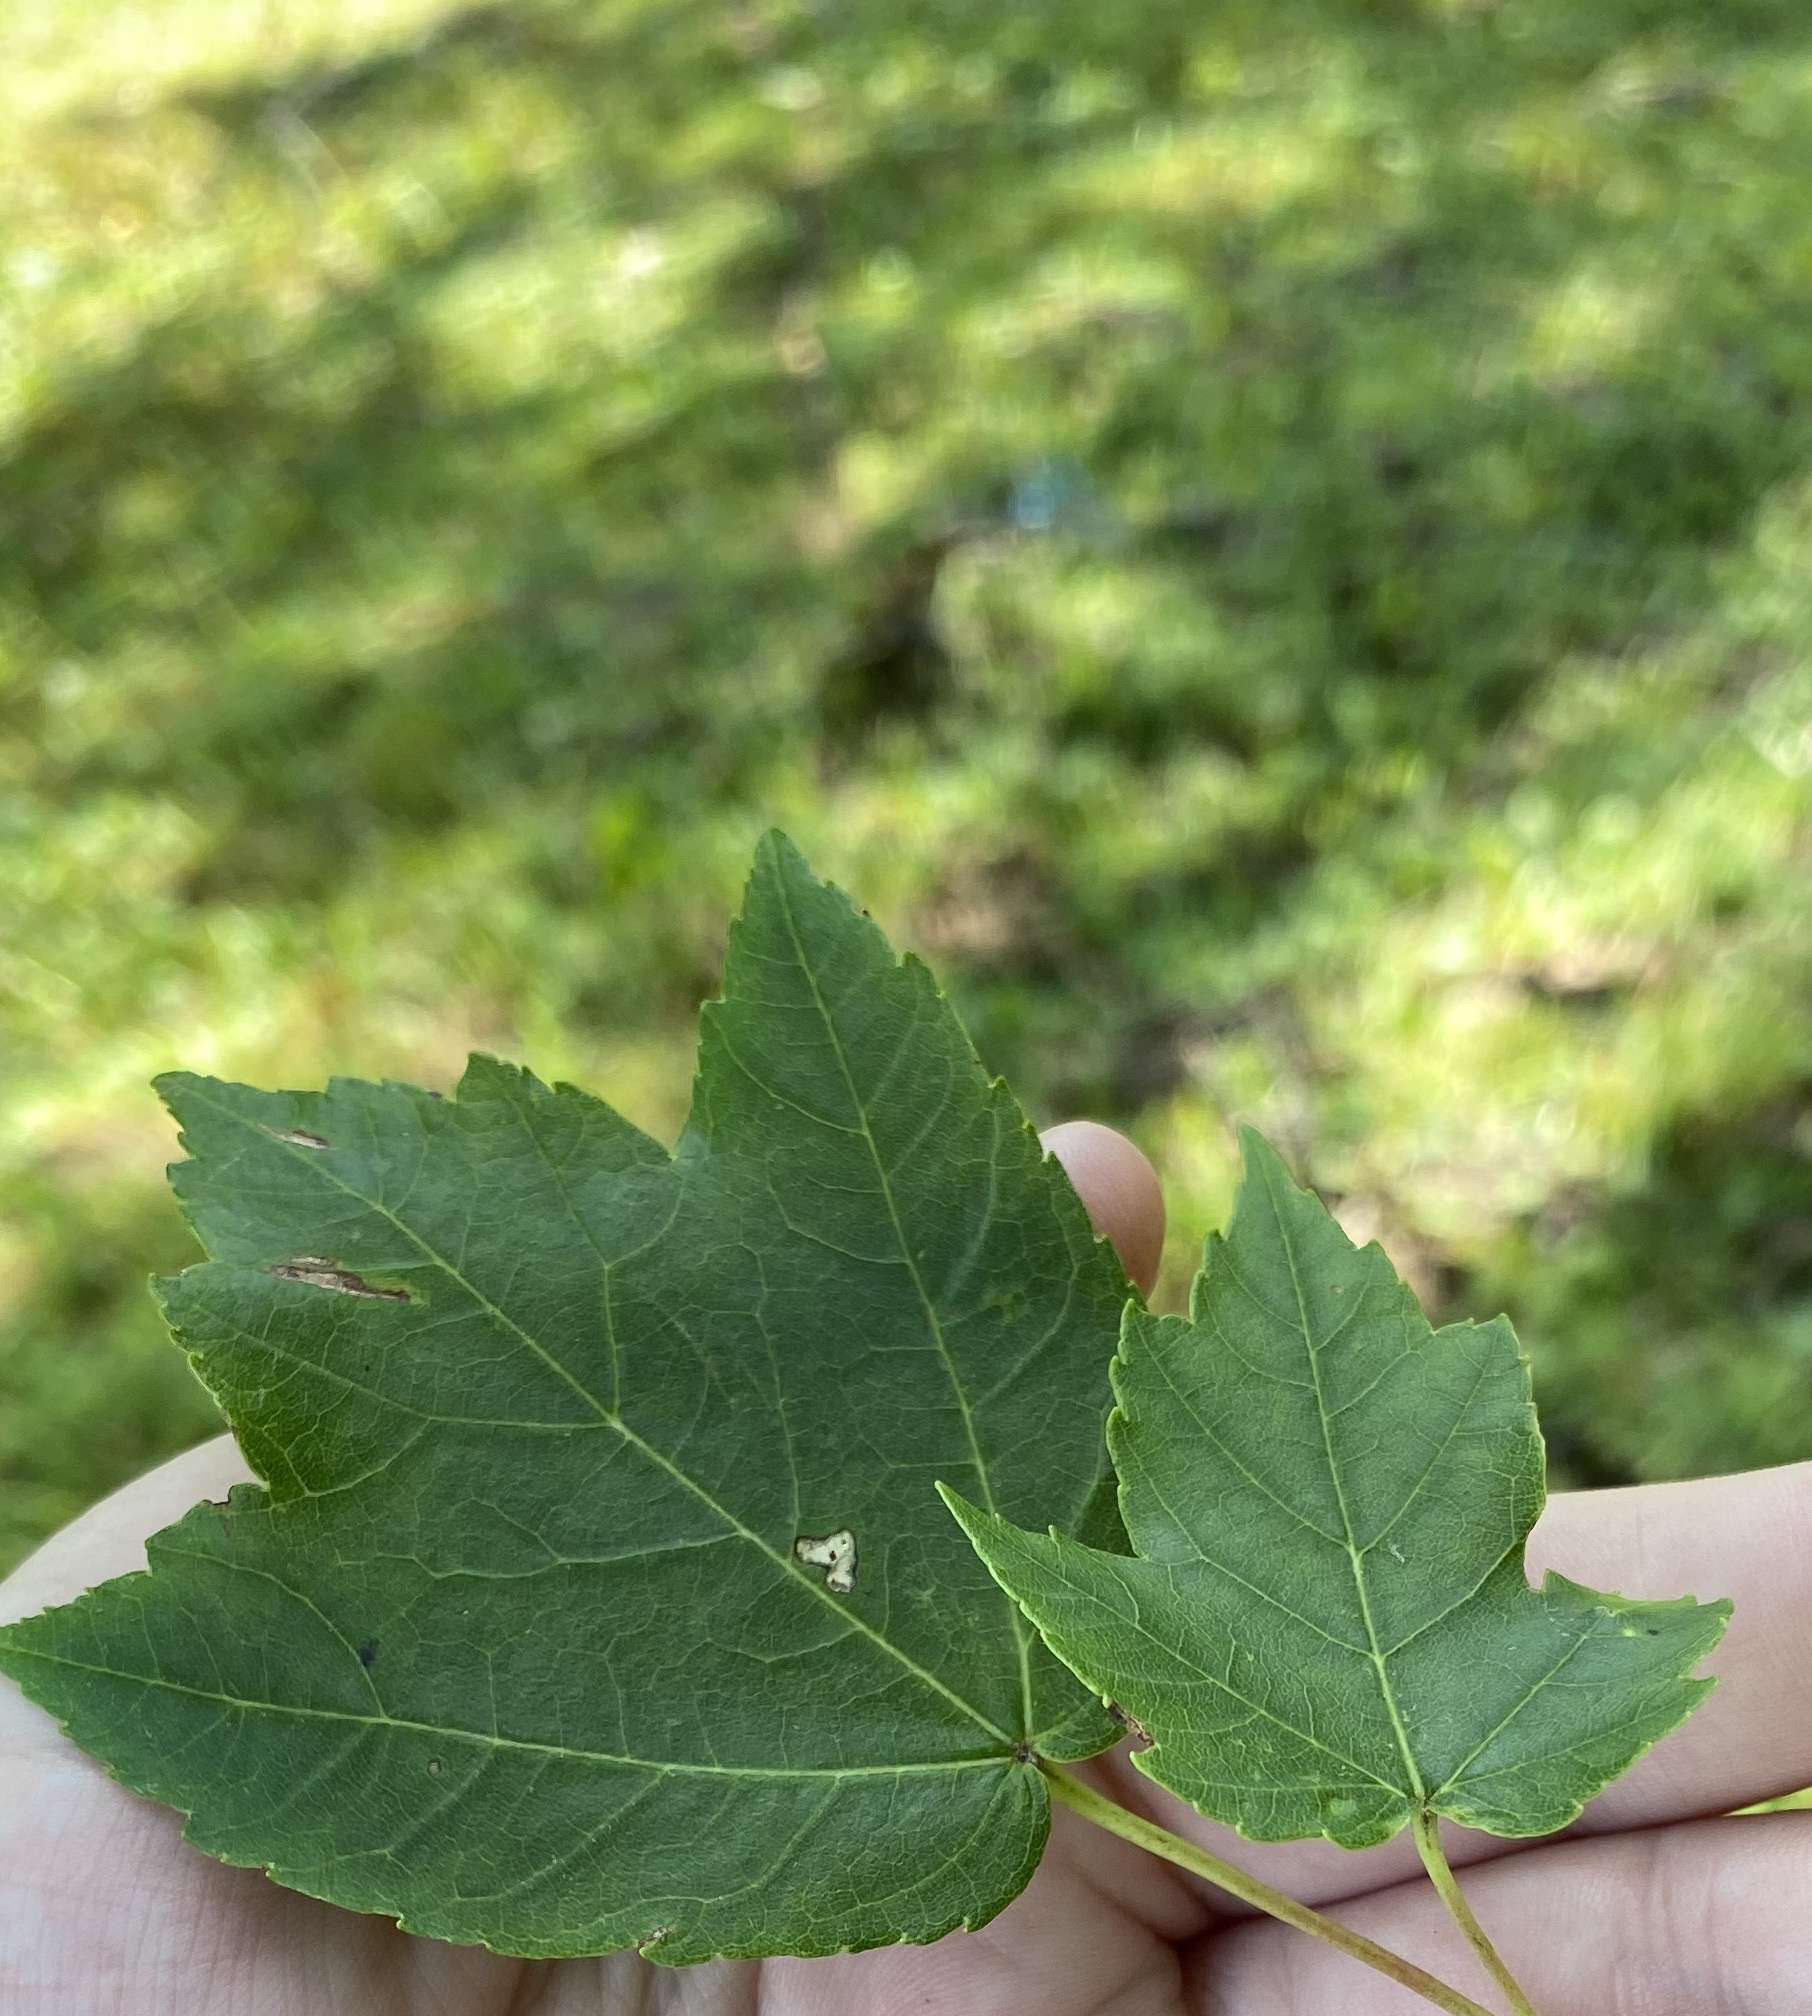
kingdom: Plantae
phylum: Tracheophyta
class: Magnoliopsida
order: Sapindales
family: Sapindaceae
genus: Acer
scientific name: Acer rubrum
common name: Red maple
